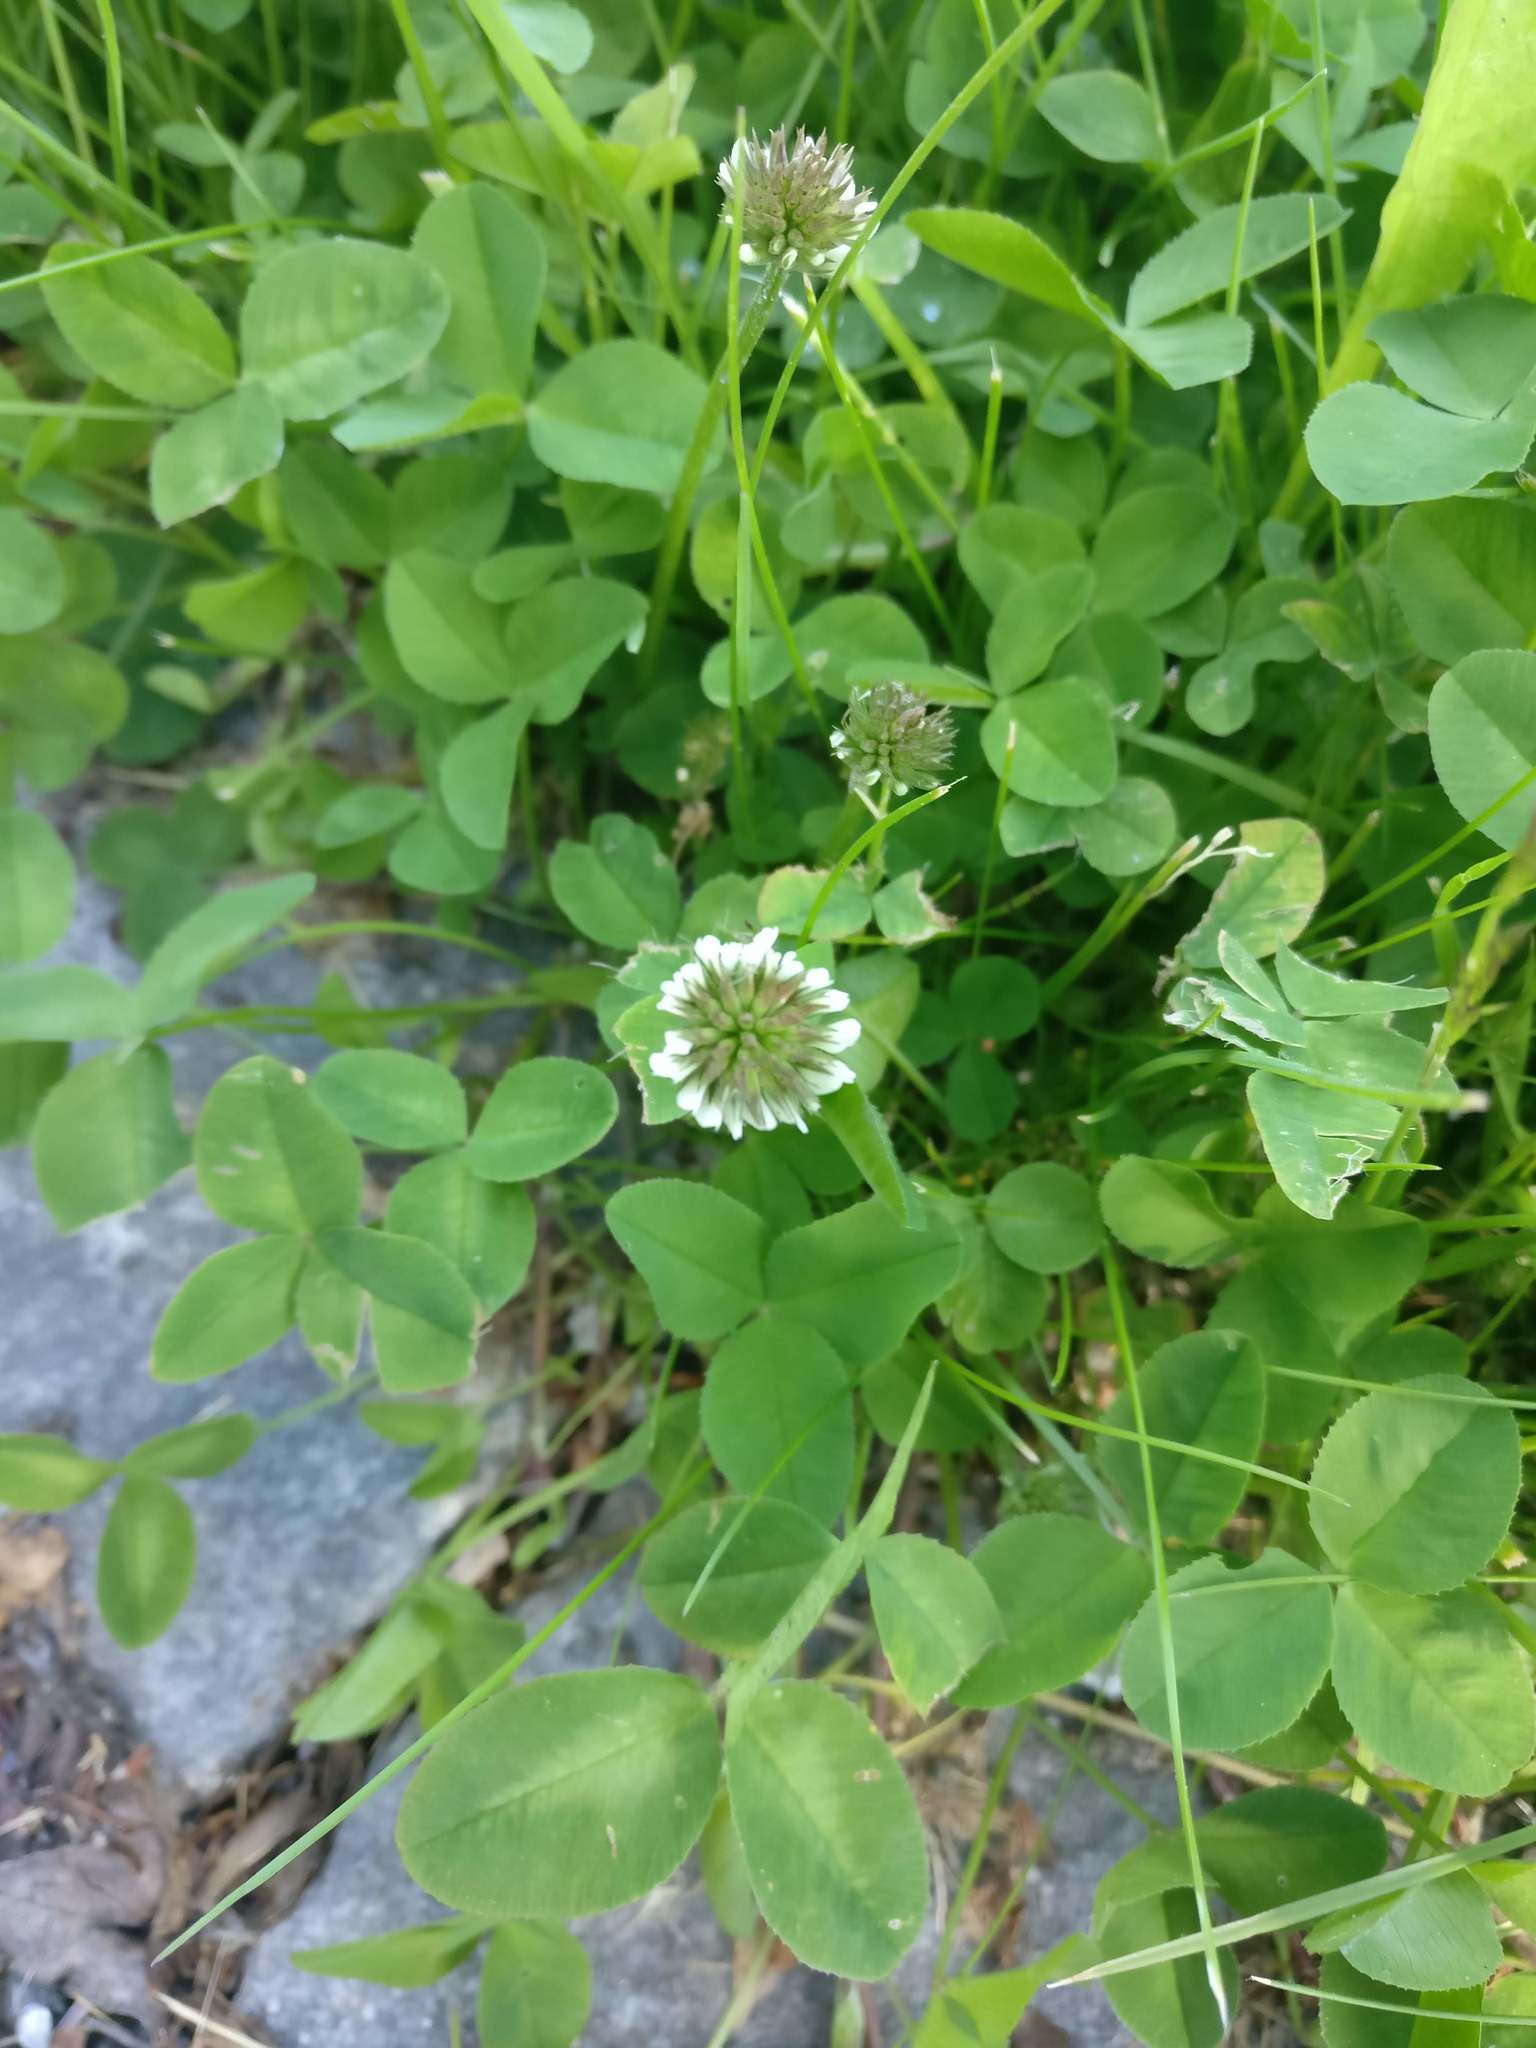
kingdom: Plantae
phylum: Tracheophyta
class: Magnoliopsida
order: Fabales
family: Fabaceae
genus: Trifolium
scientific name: Trifolium repens
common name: White clover
